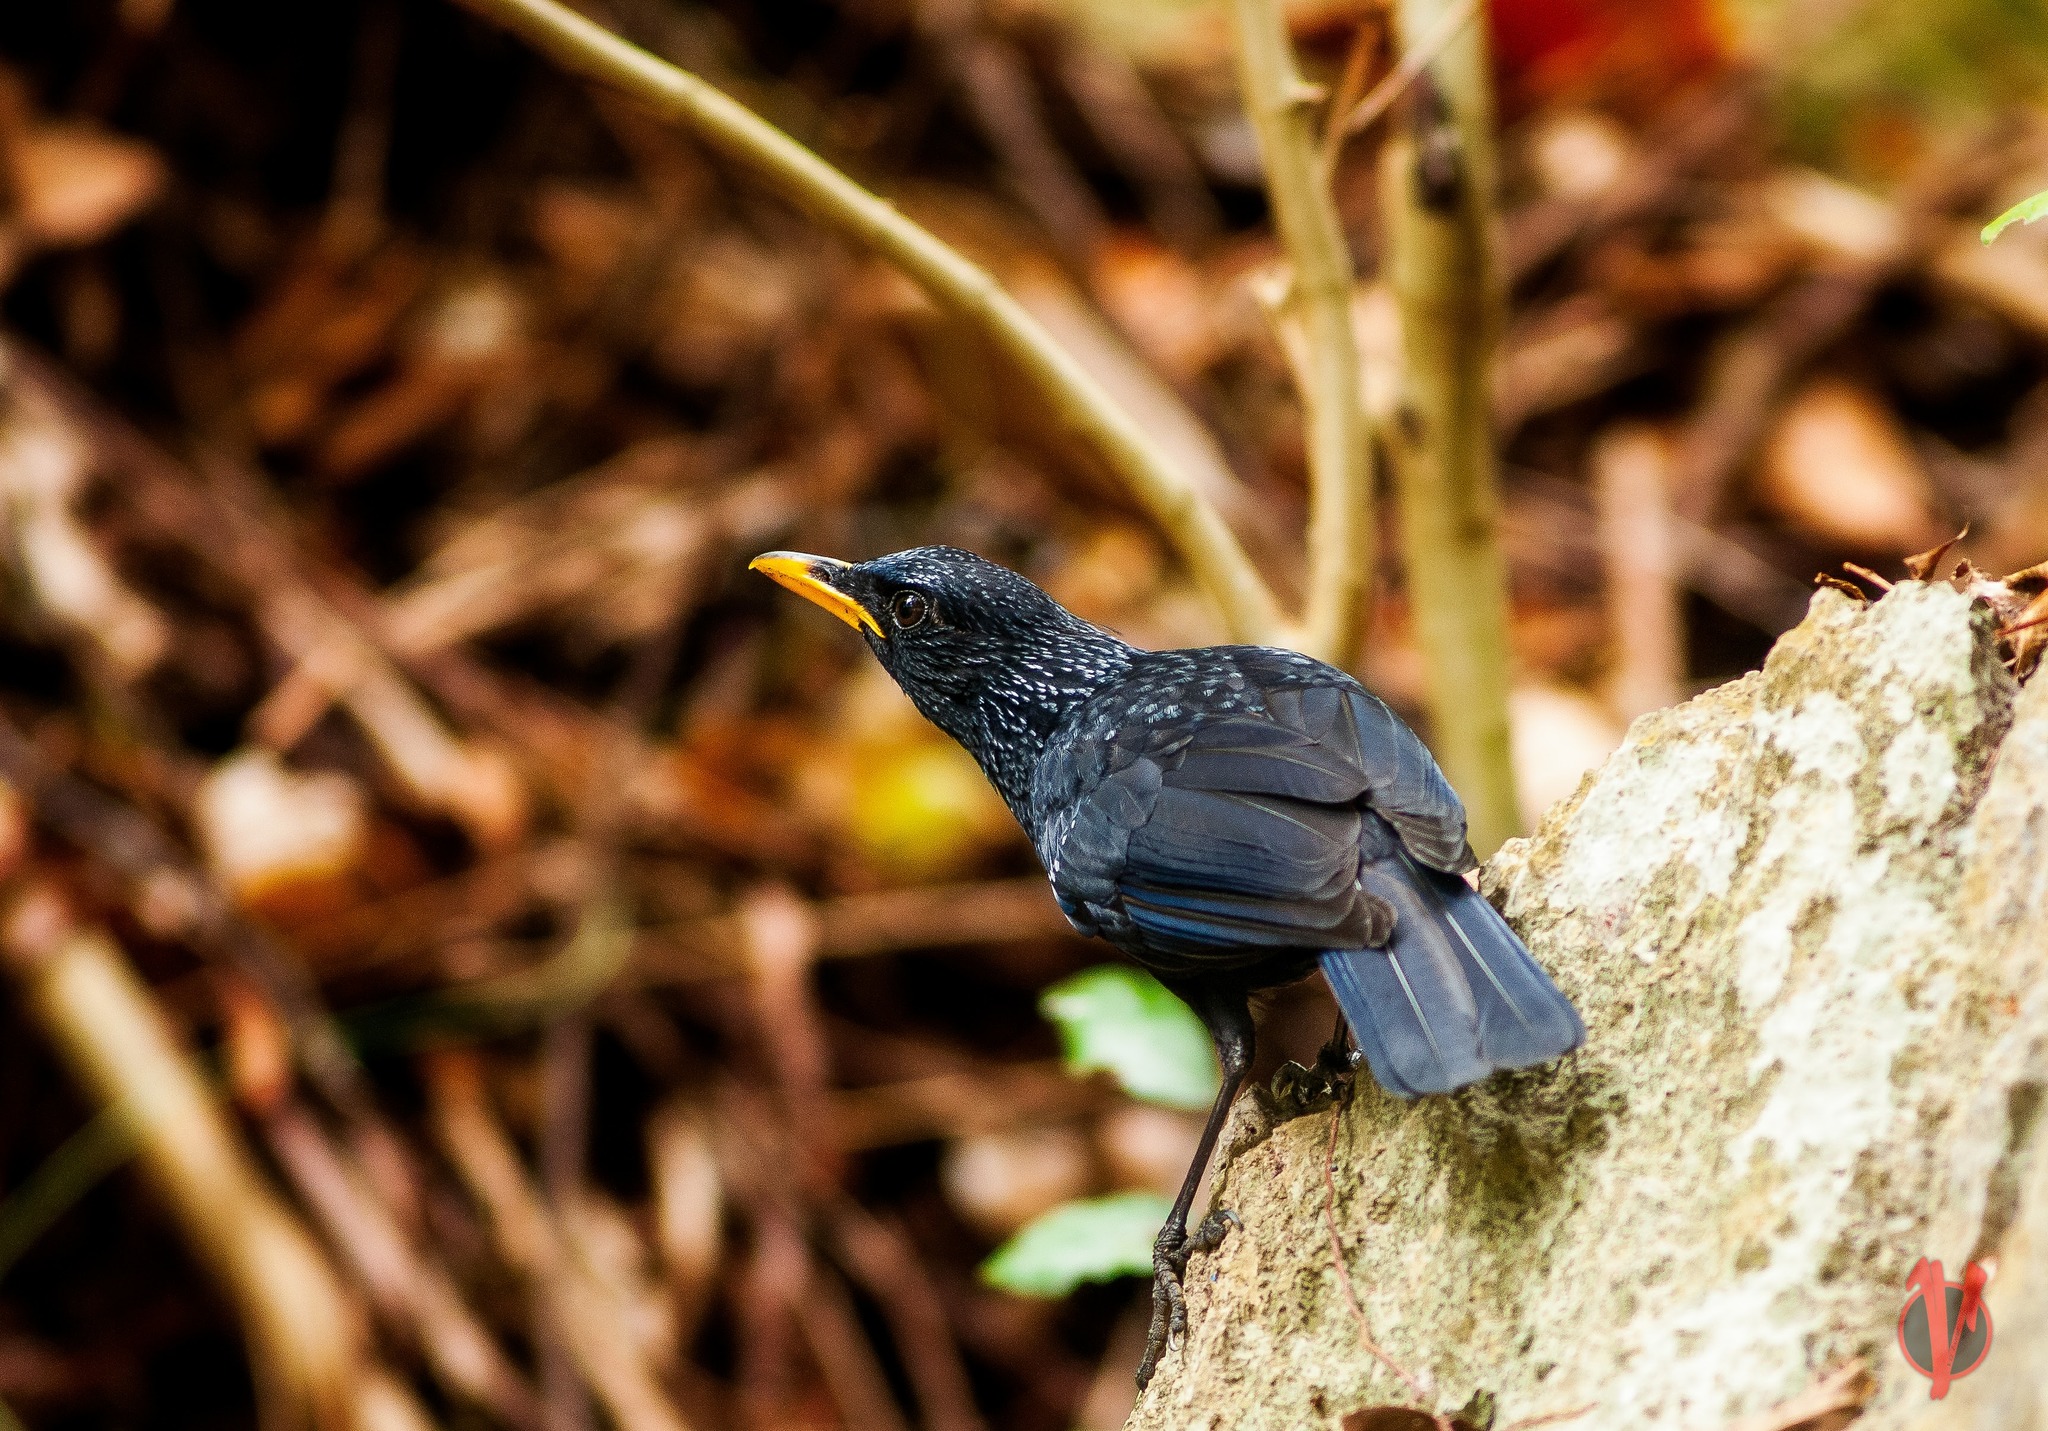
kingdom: Animalia
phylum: Chordata
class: Aves
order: Passeriformes
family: Muscicapidae
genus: Myophonus
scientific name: Myophonus caeruleus
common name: Blue whistling-thrush
